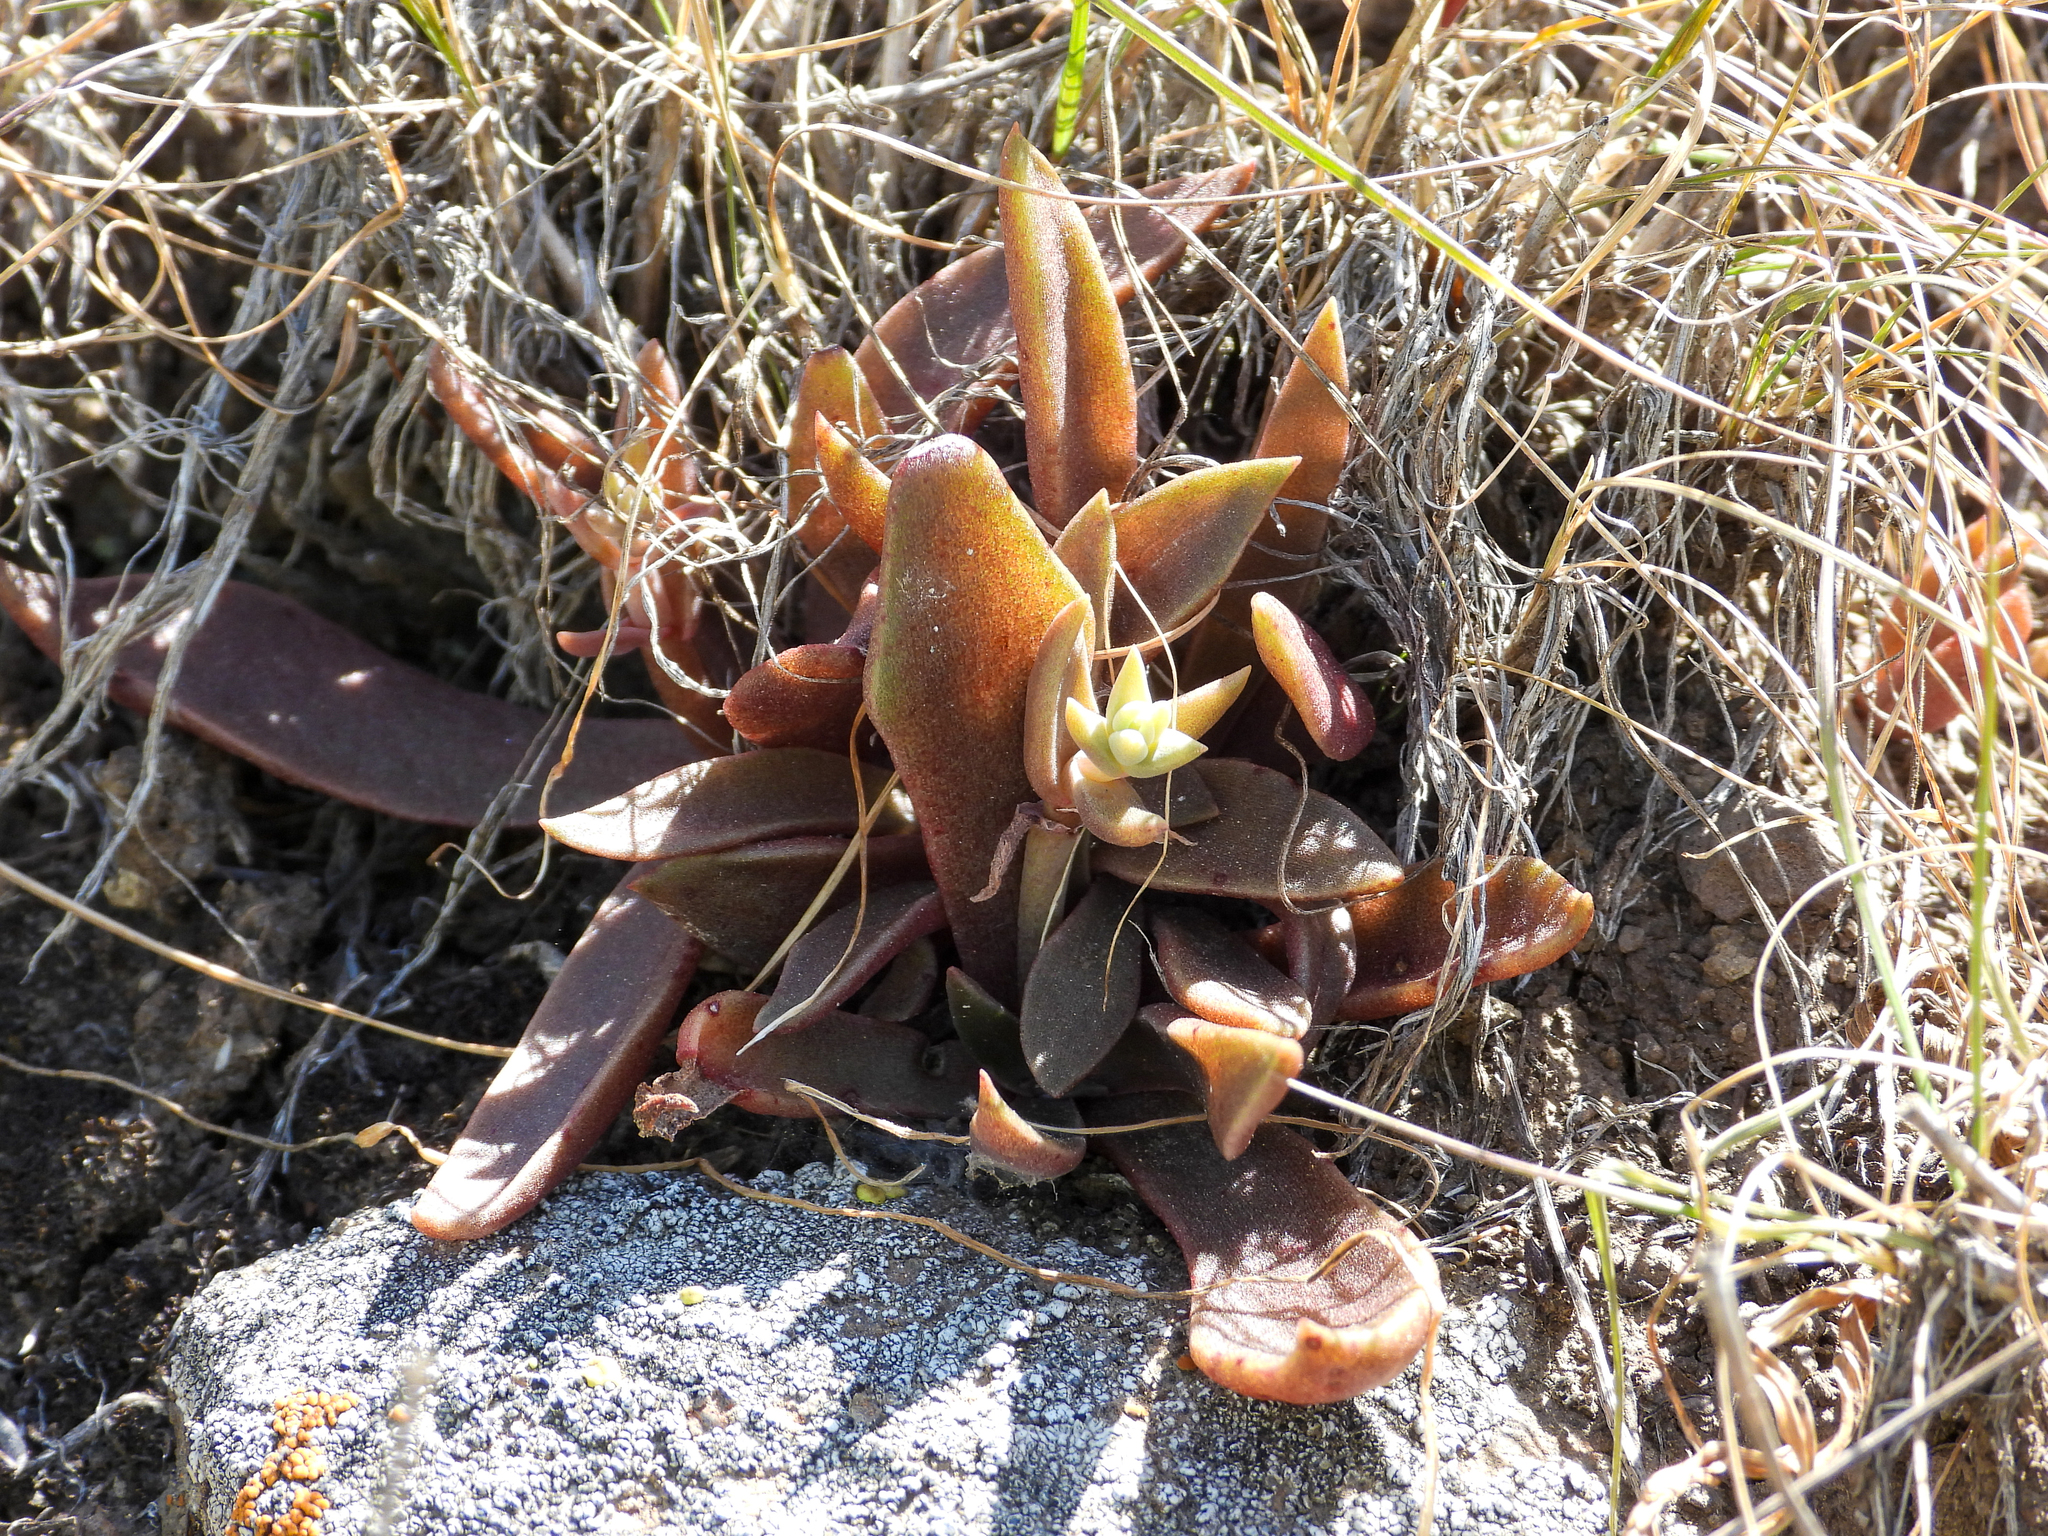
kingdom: Plantae
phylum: Tracheophyta
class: Magnoliopsida
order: Saxifragales
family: Crassulaceae
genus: Dudleya
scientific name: Dudleya parva
